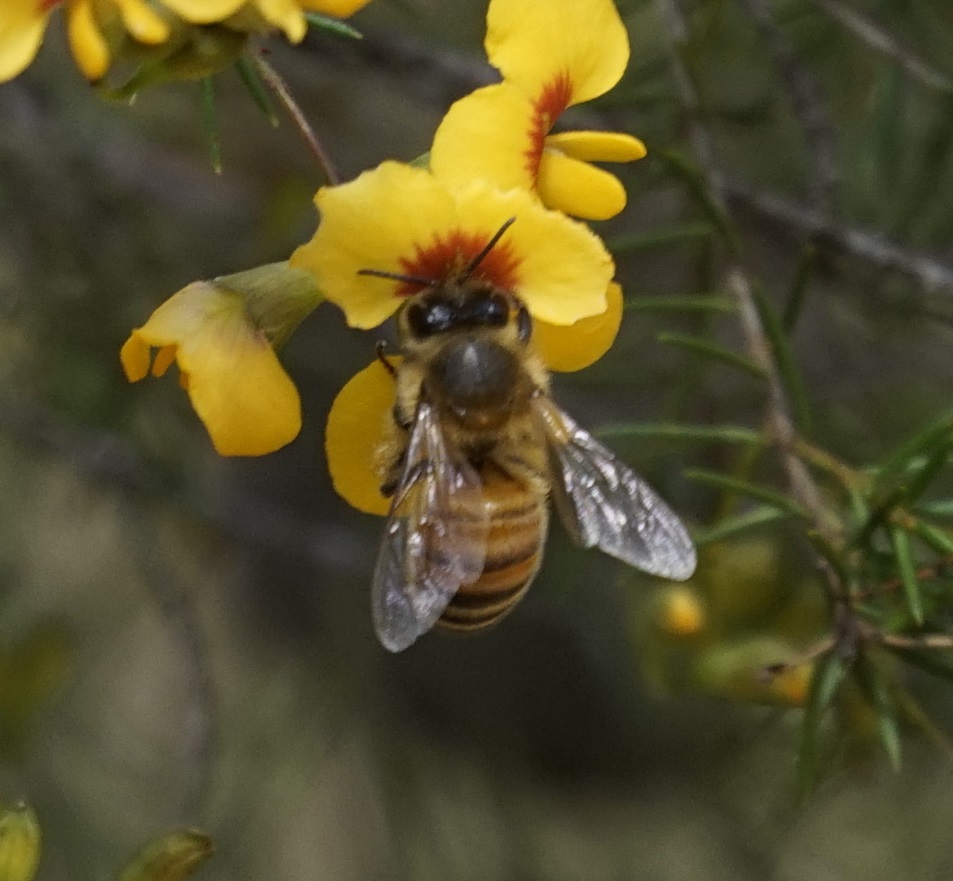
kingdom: Animalia
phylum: Arthropoda
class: Insecta
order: Hymenoptera
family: Apidae
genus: Apis
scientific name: Apis mellifera
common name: Honey bee
